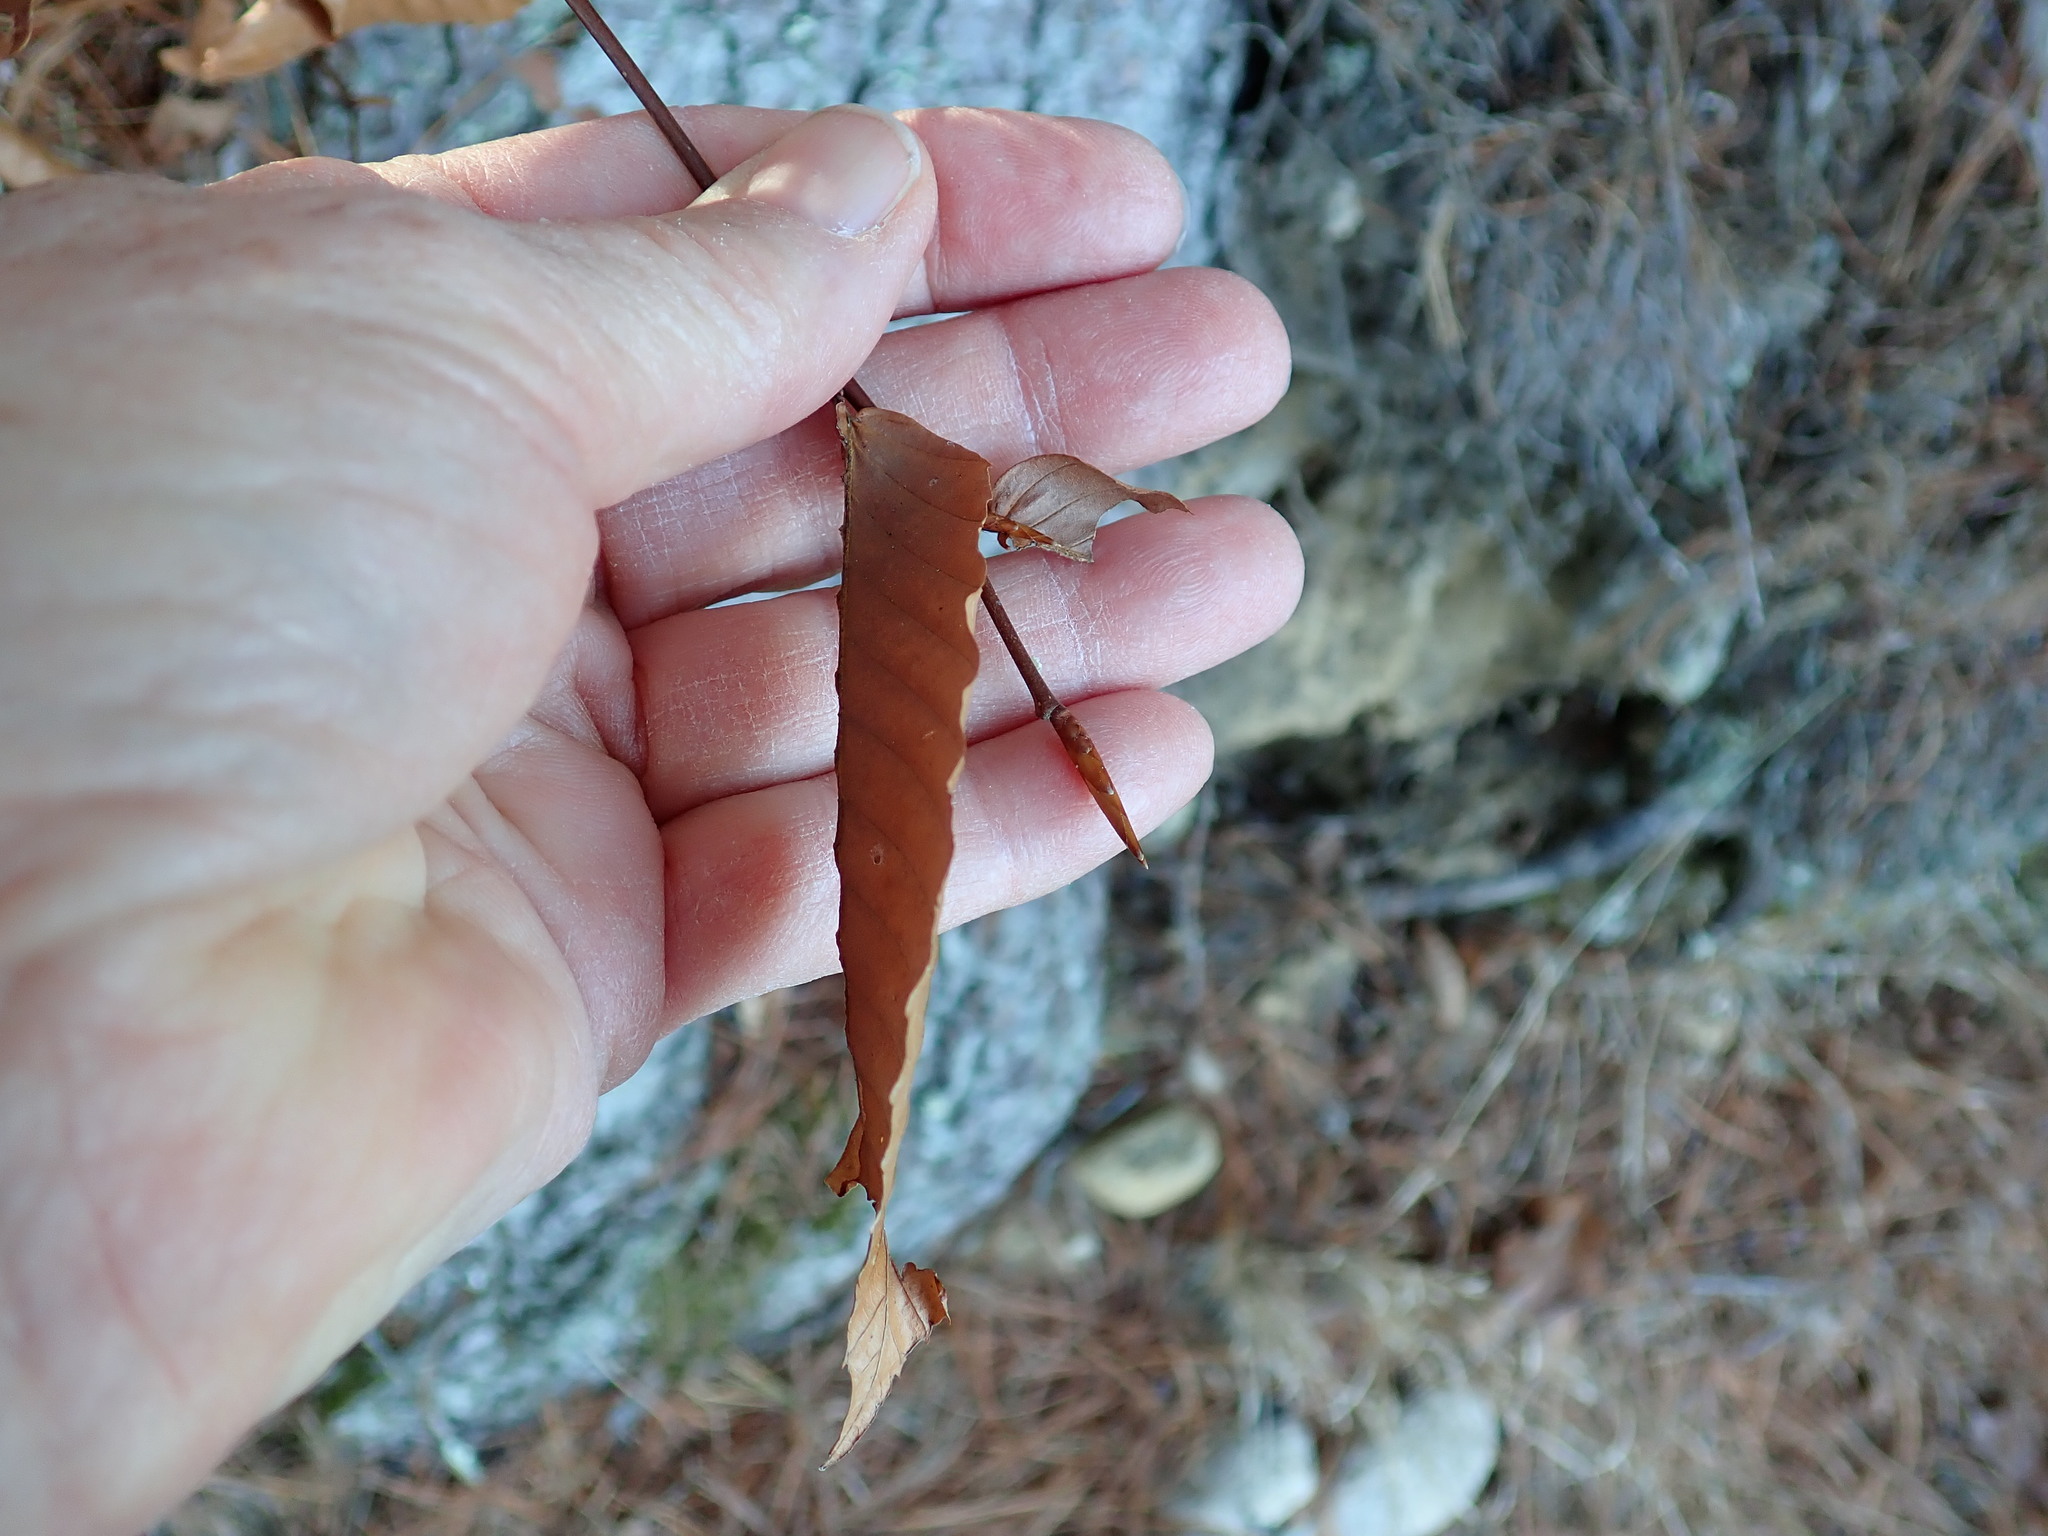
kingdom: Plantae
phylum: Tracheophyta
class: Magnoliopsida
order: Fagales
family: Fagaceae
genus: Fagus
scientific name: Fagus grandifolia
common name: American beech
